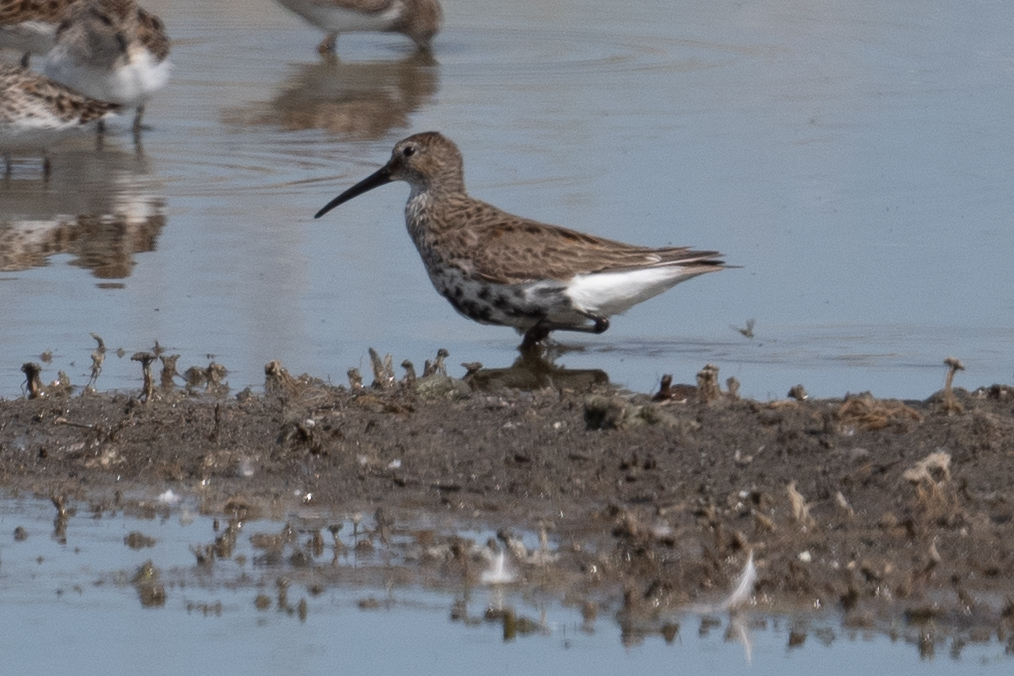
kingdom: Animalia
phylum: Chordata
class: Aves
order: Charadriiformes
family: Scolopacidae
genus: Calidris
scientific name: Calidris alpina
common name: Dunlin
